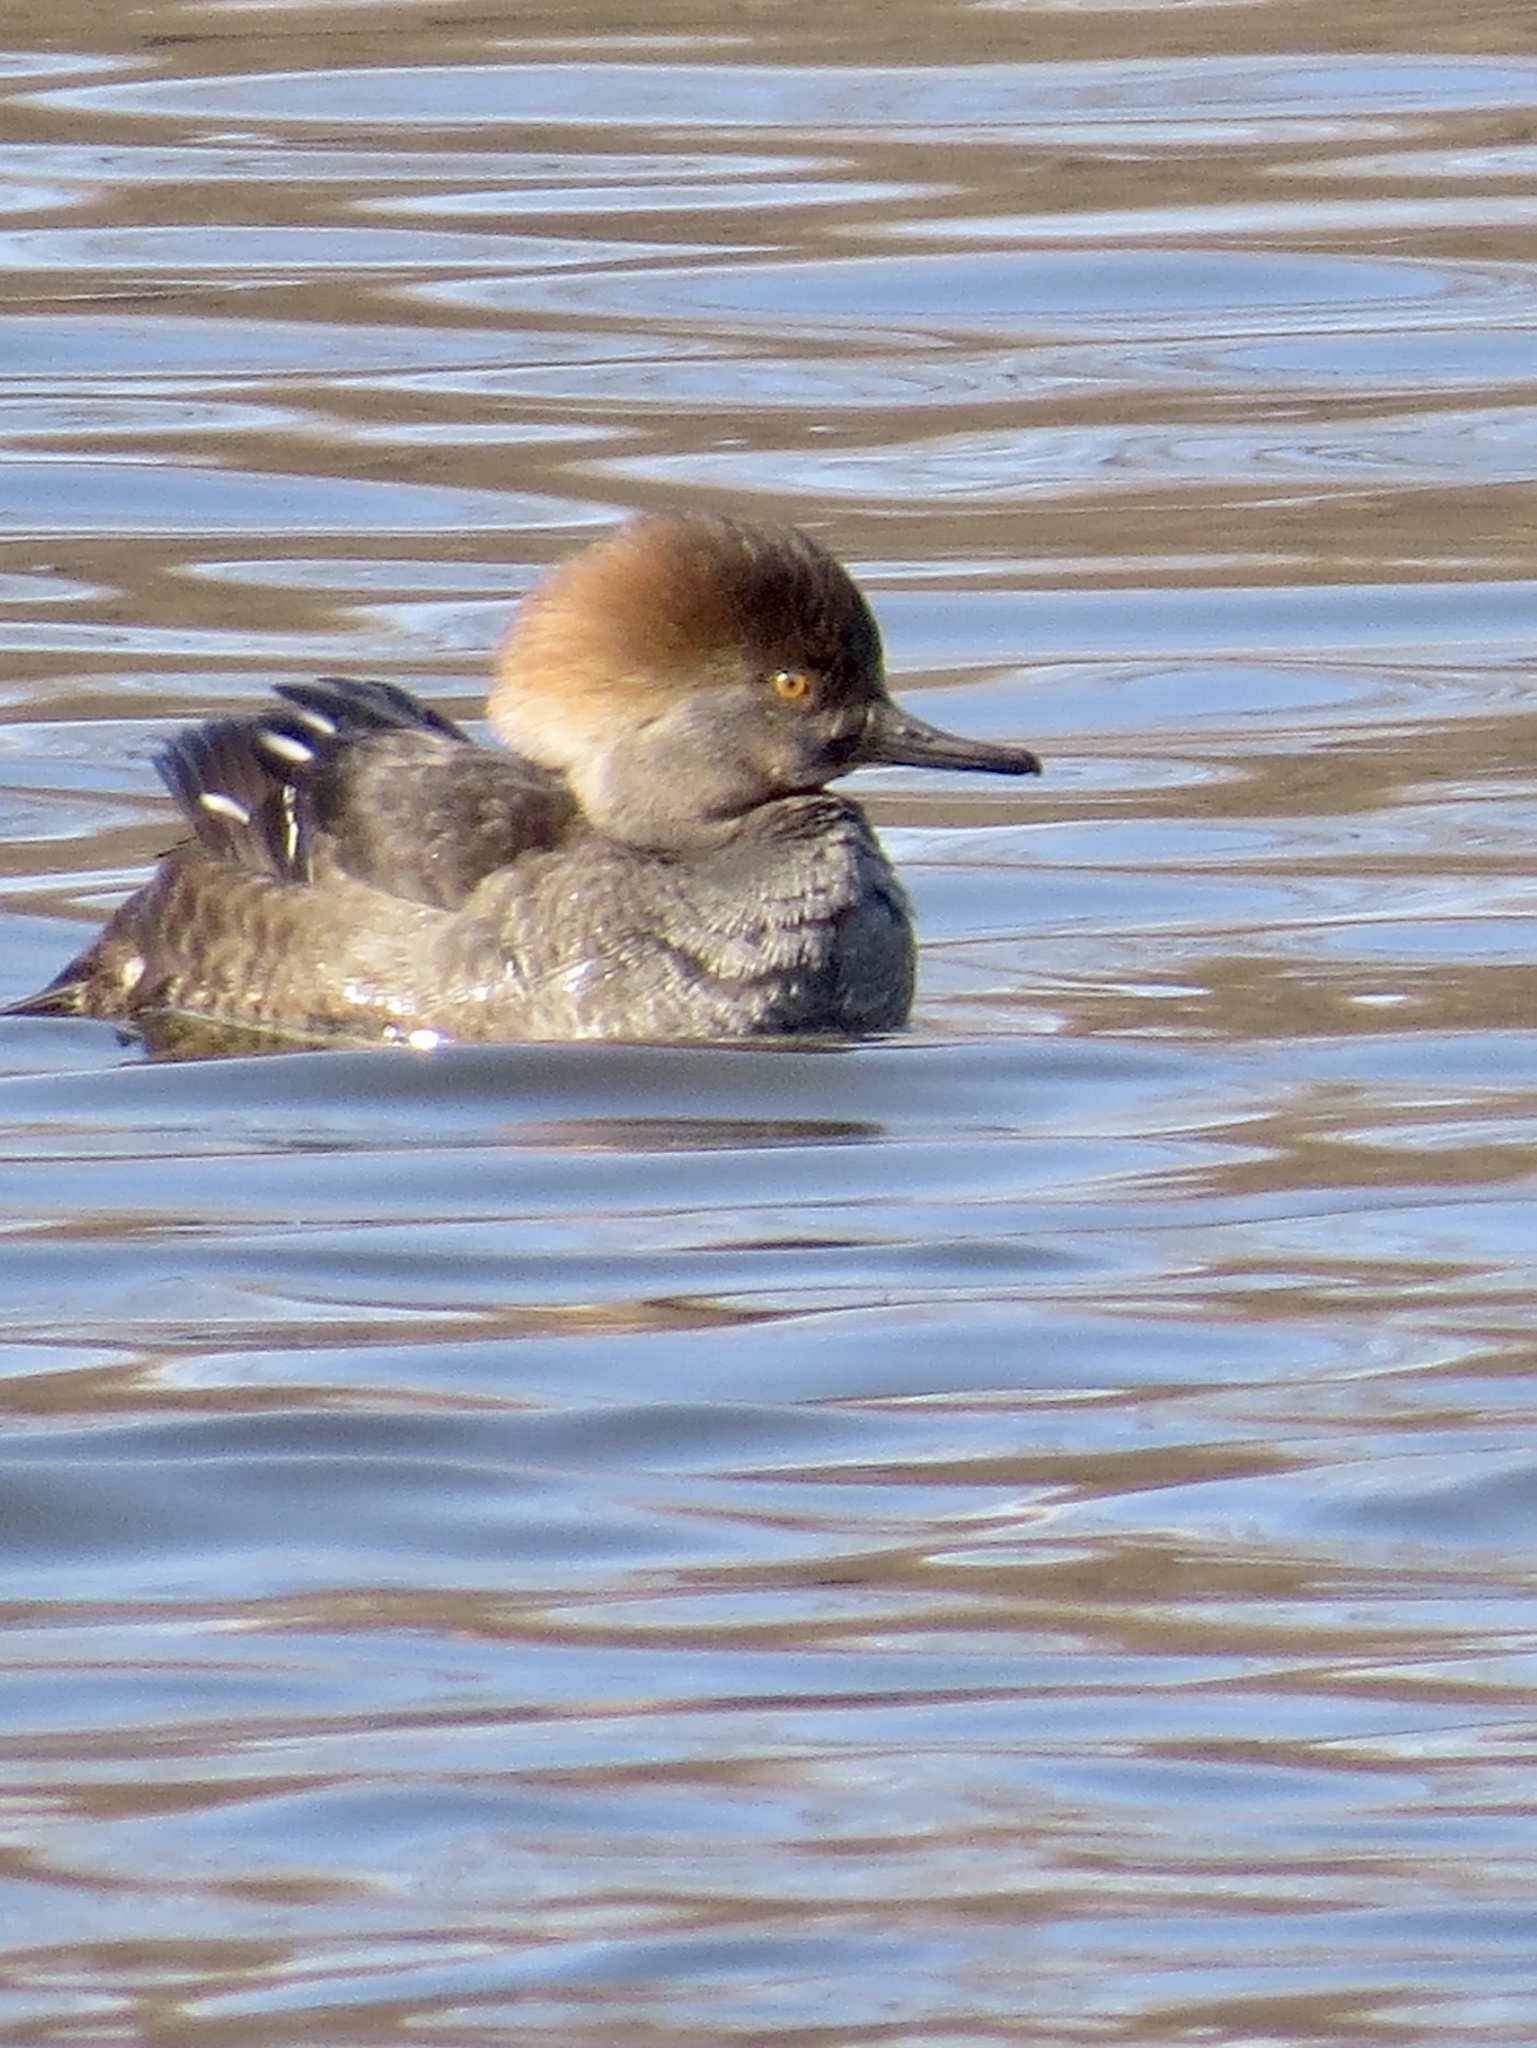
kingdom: Animalia
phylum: Chordata
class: Aves
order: Anseriformes
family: Anatidae
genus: Lophodytes
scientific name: Lophodytes cucullatus
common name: Hooded merganser
